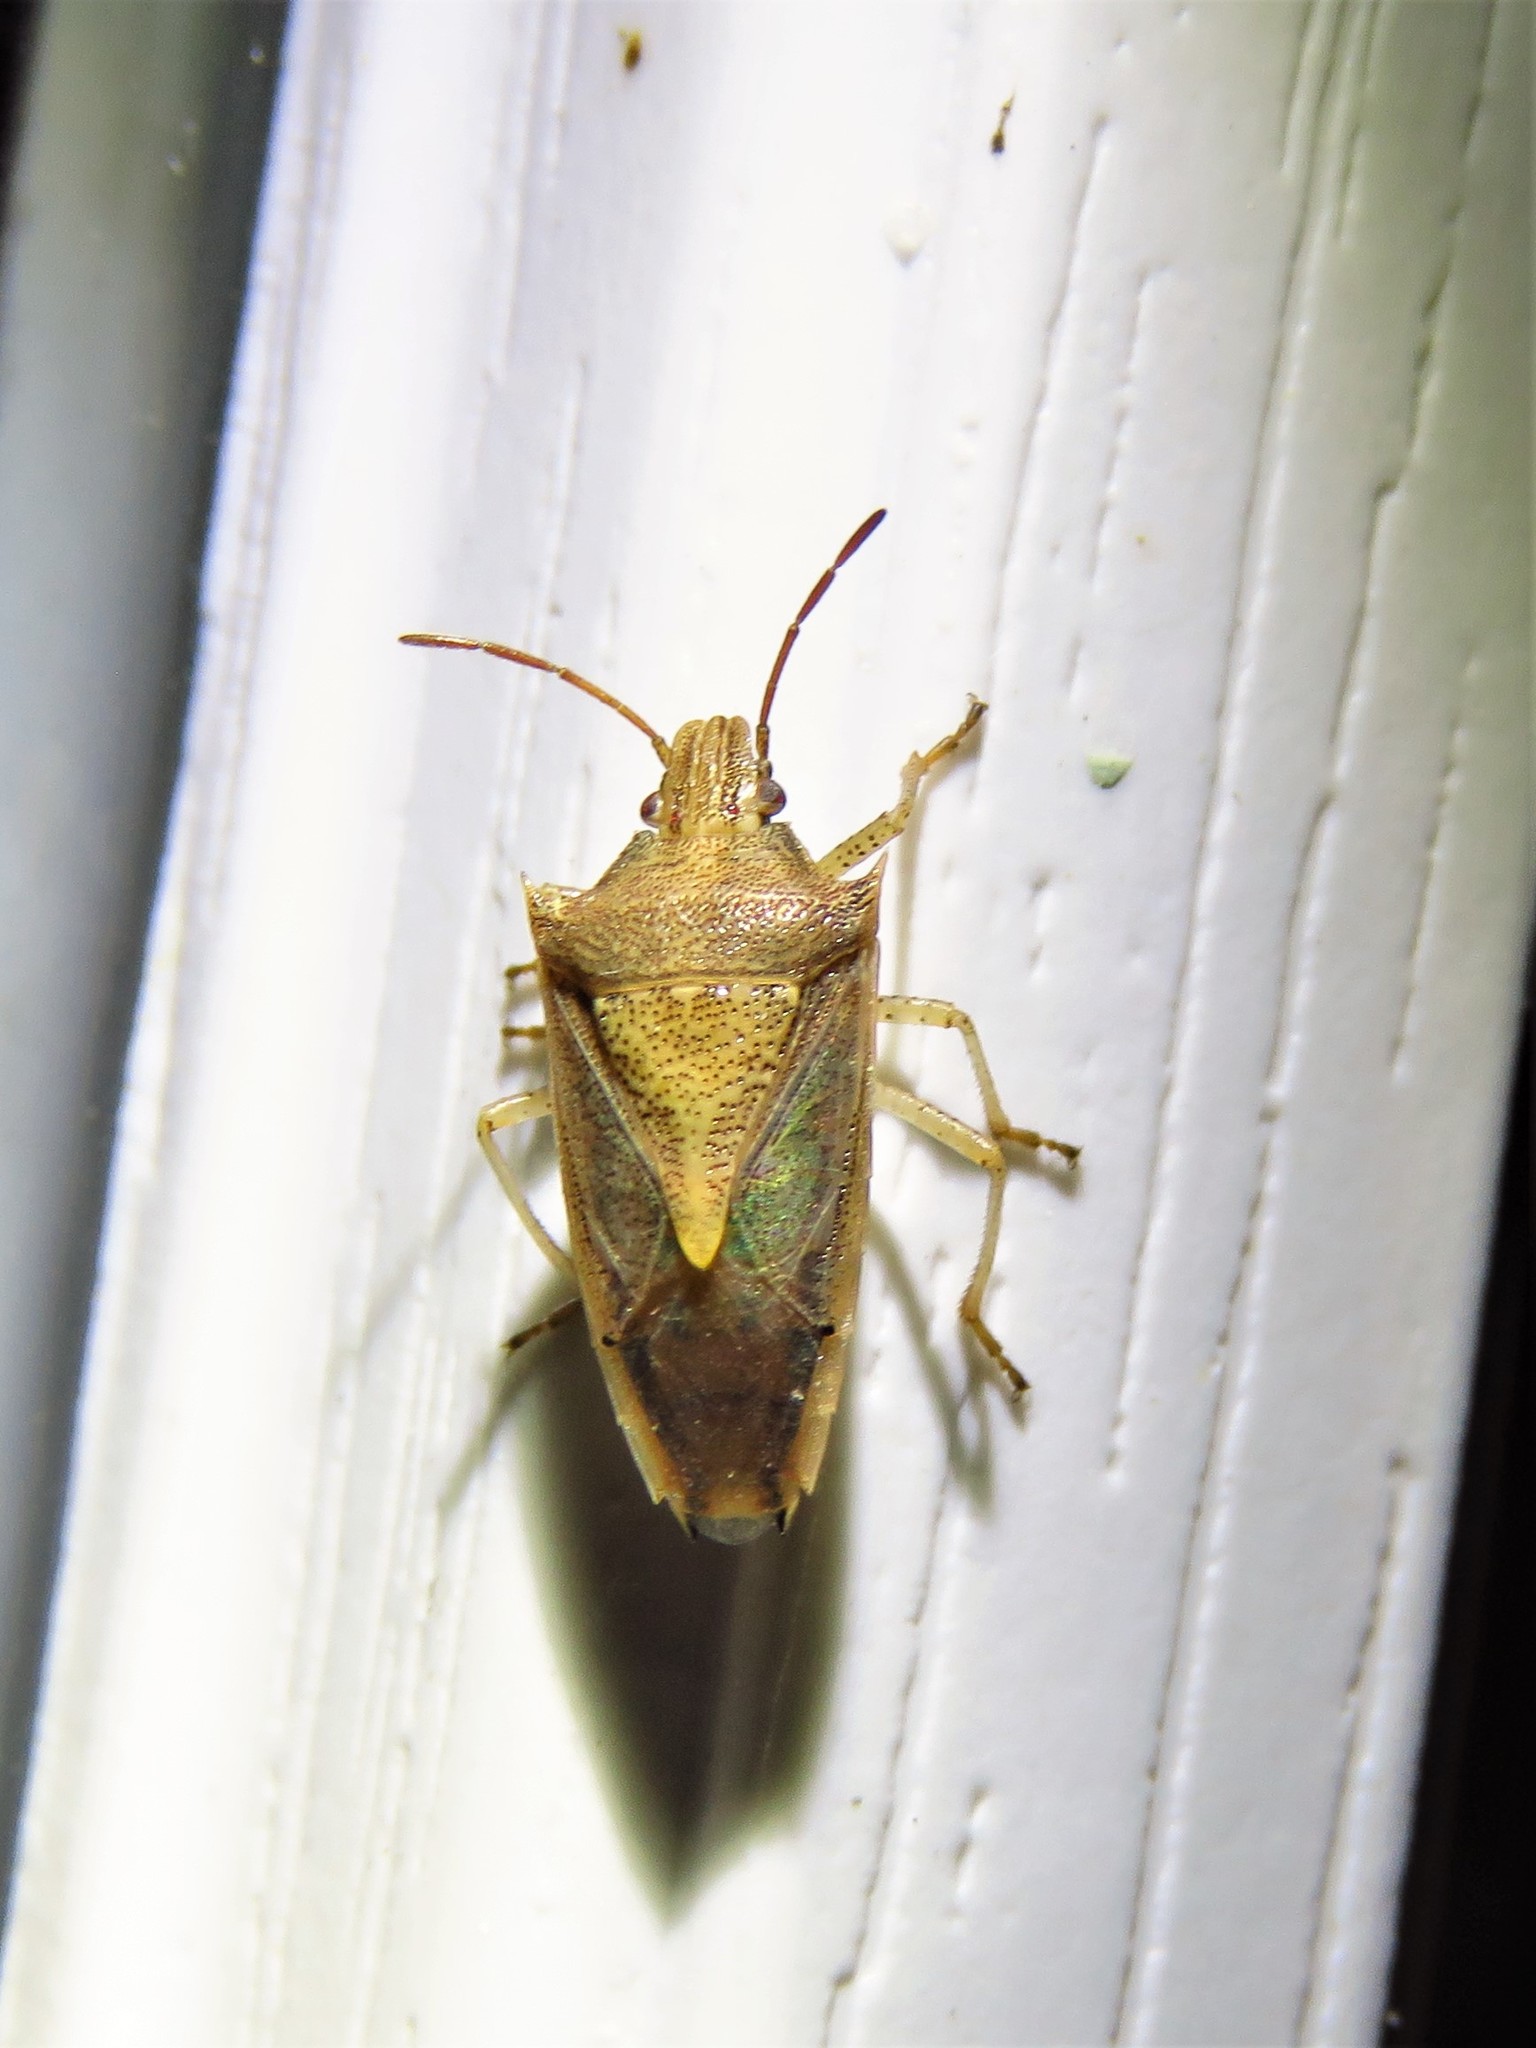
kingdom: Animalia
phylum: Arthropoda
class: Insecta
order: Hemiptera
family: Pentatomidae
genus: Oebalus
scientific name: Oebalus pugnax
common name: Rice stink bug
